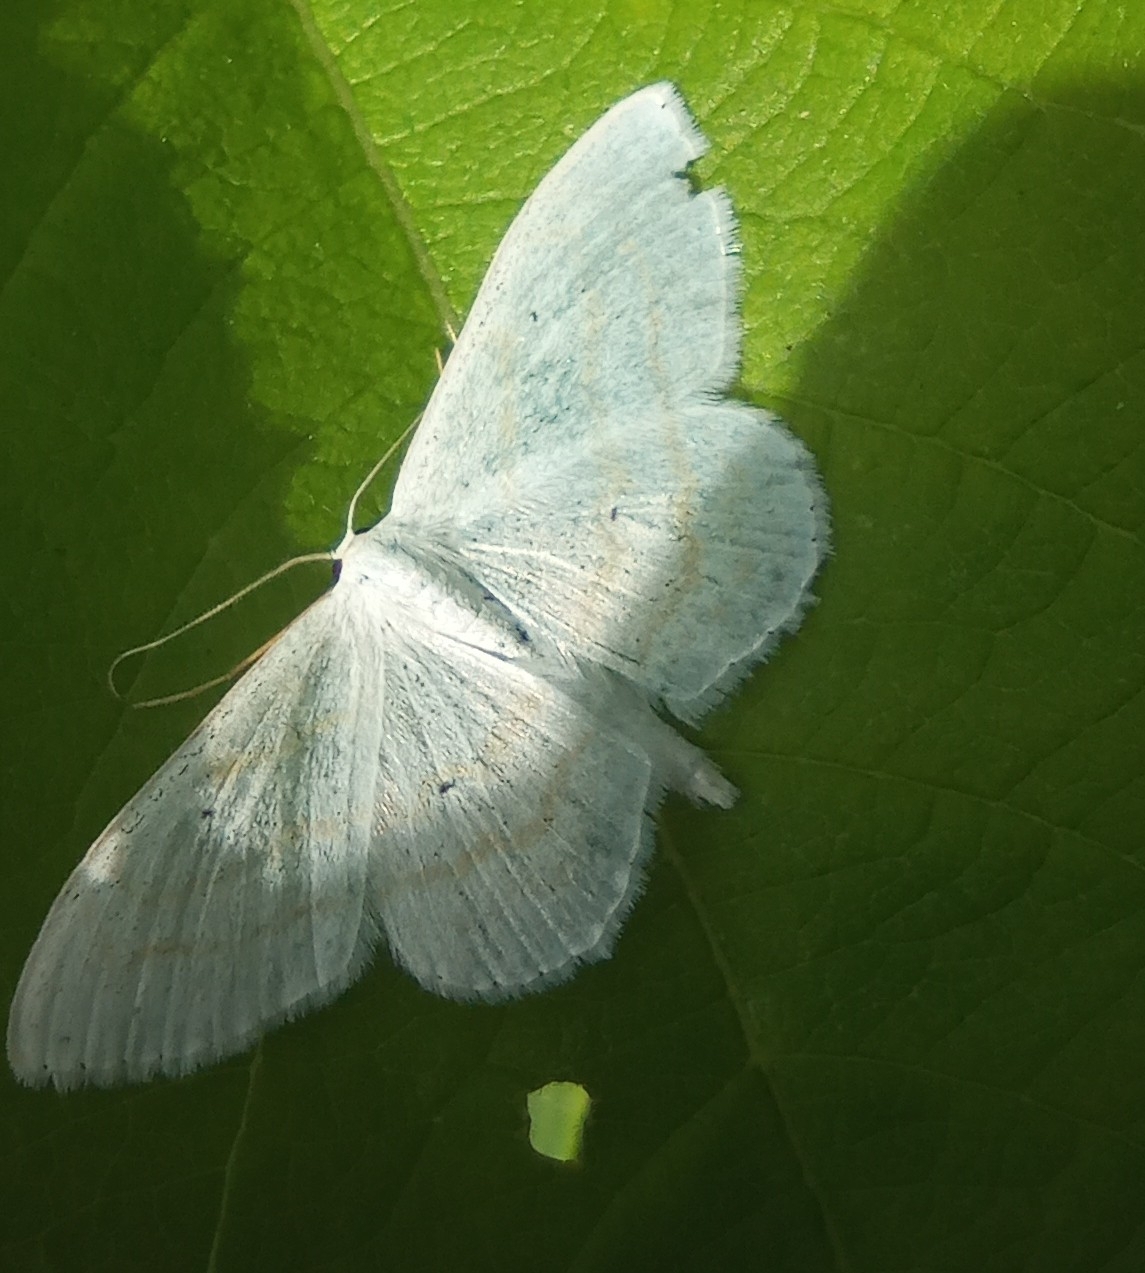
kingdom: Animalia
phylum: Arthropoda
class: Insecta
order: Lepidoptera
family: Geometridae
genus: Scopula
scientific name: Scopula subpunctaria
